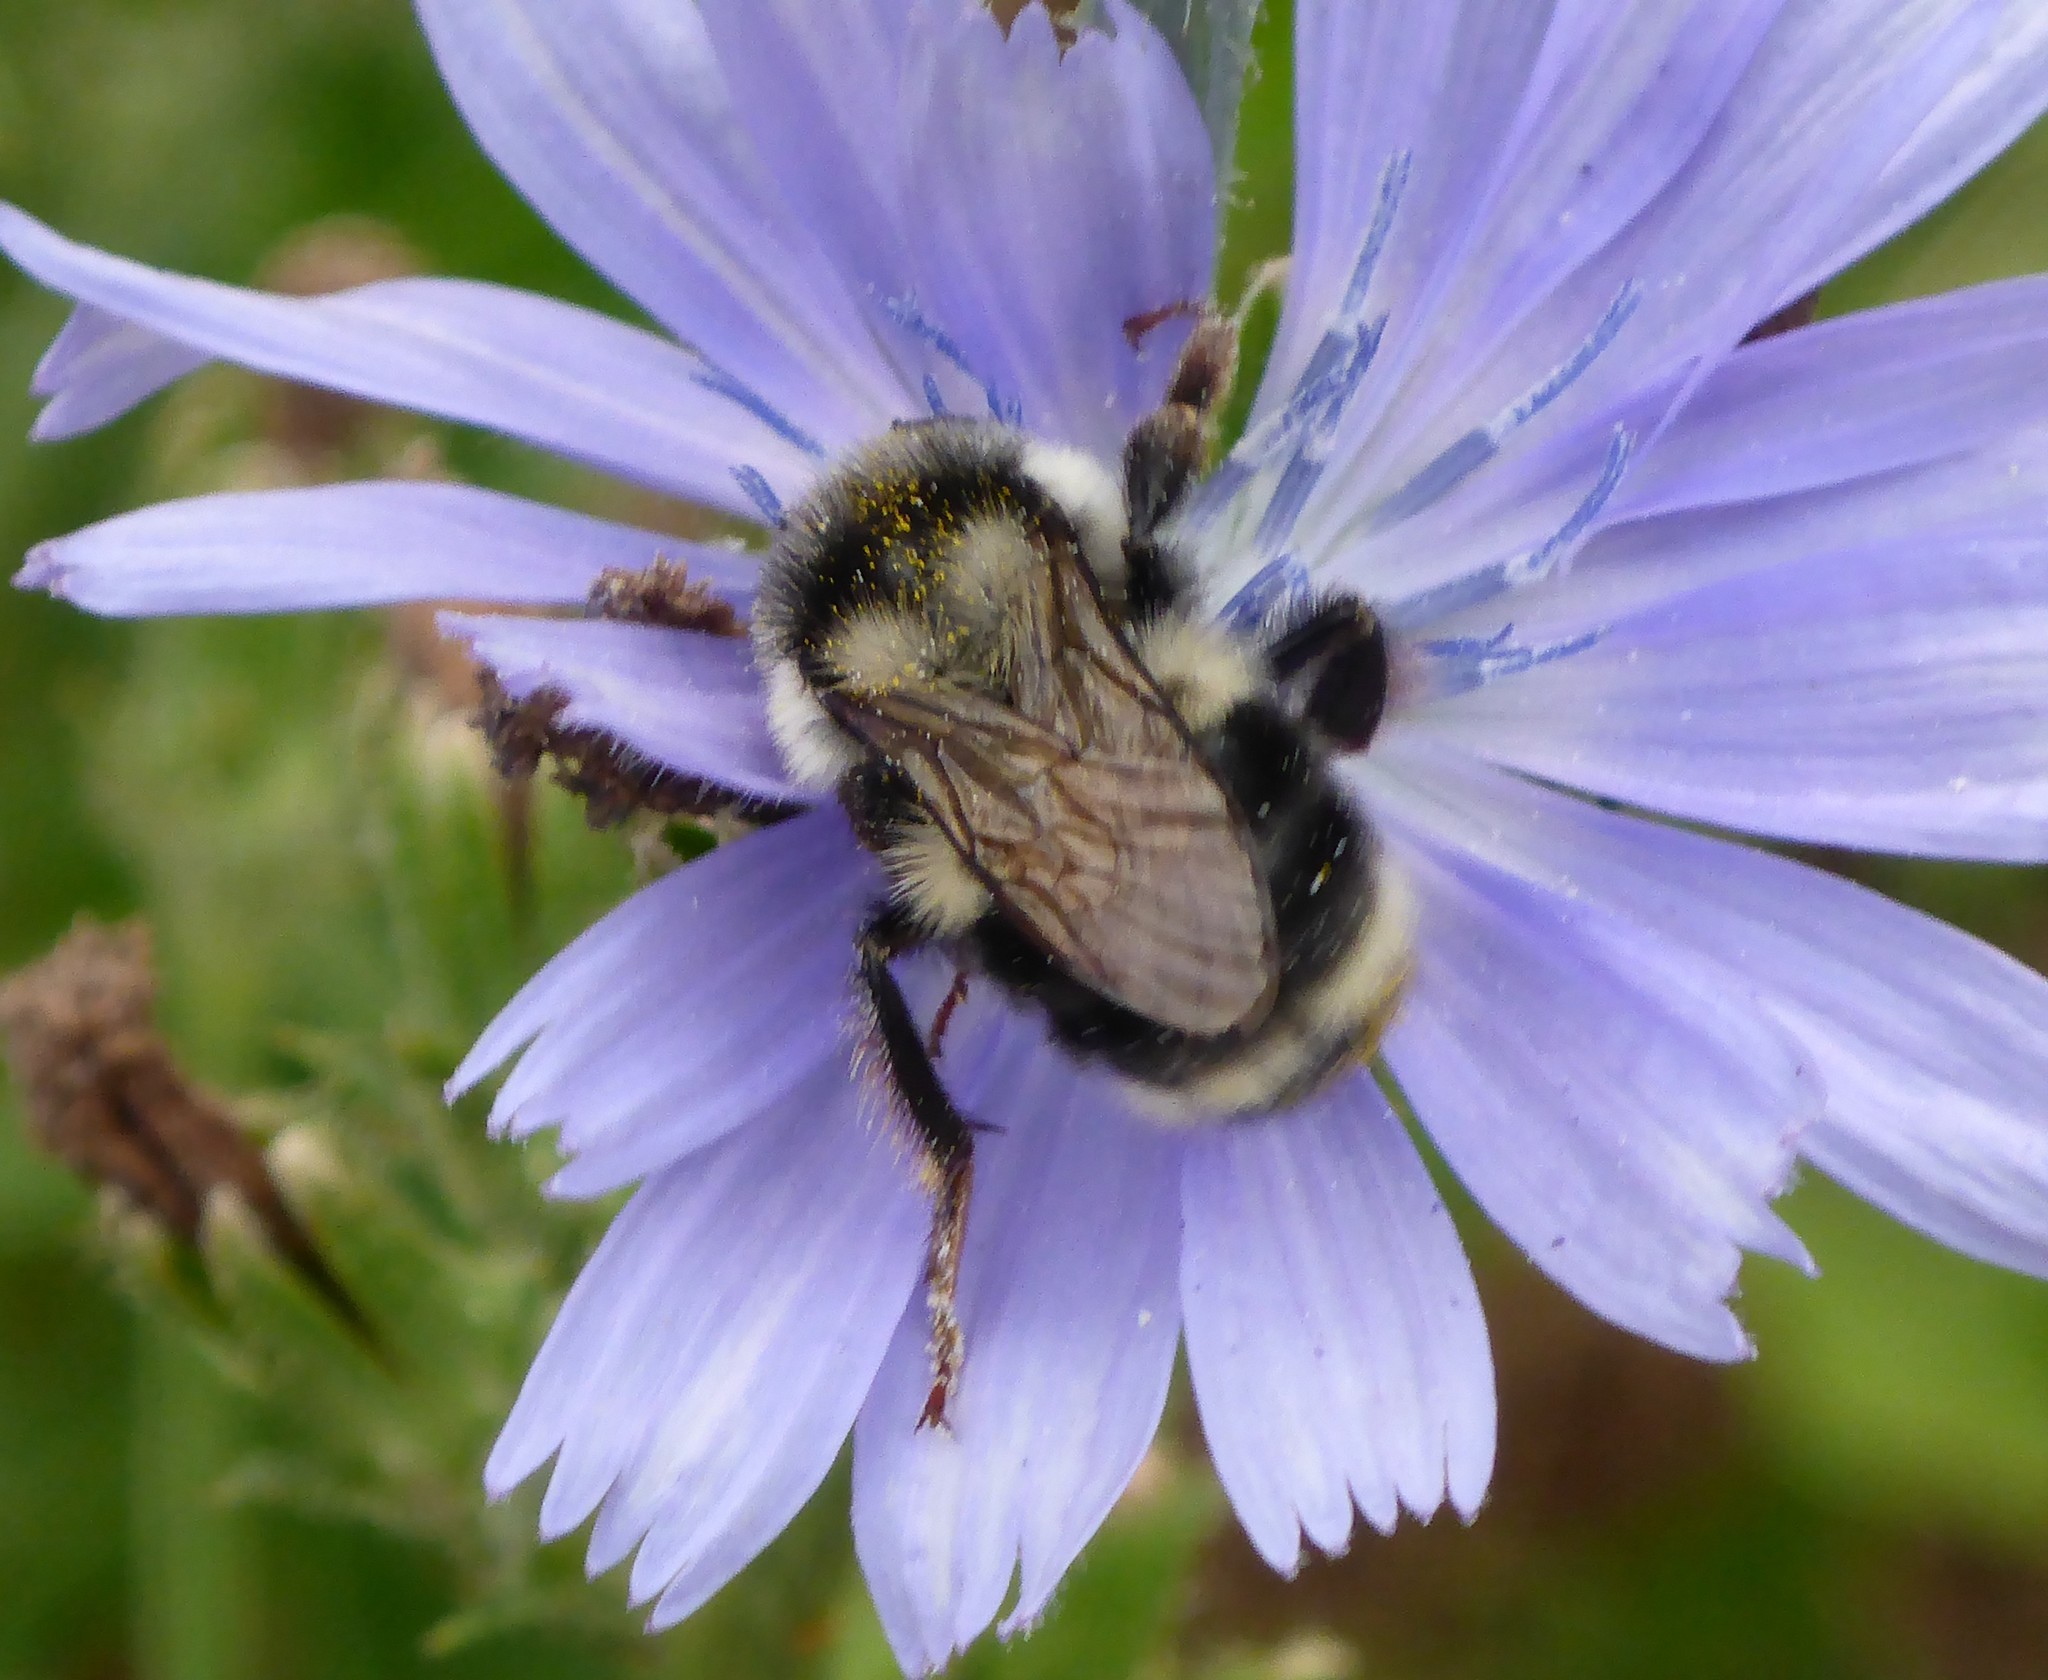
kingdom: Animalia
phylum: Arthropoda
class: Insecta
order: Hymenoptera
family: Apidae
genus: Bombus
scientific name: Bombus vancouverensis
